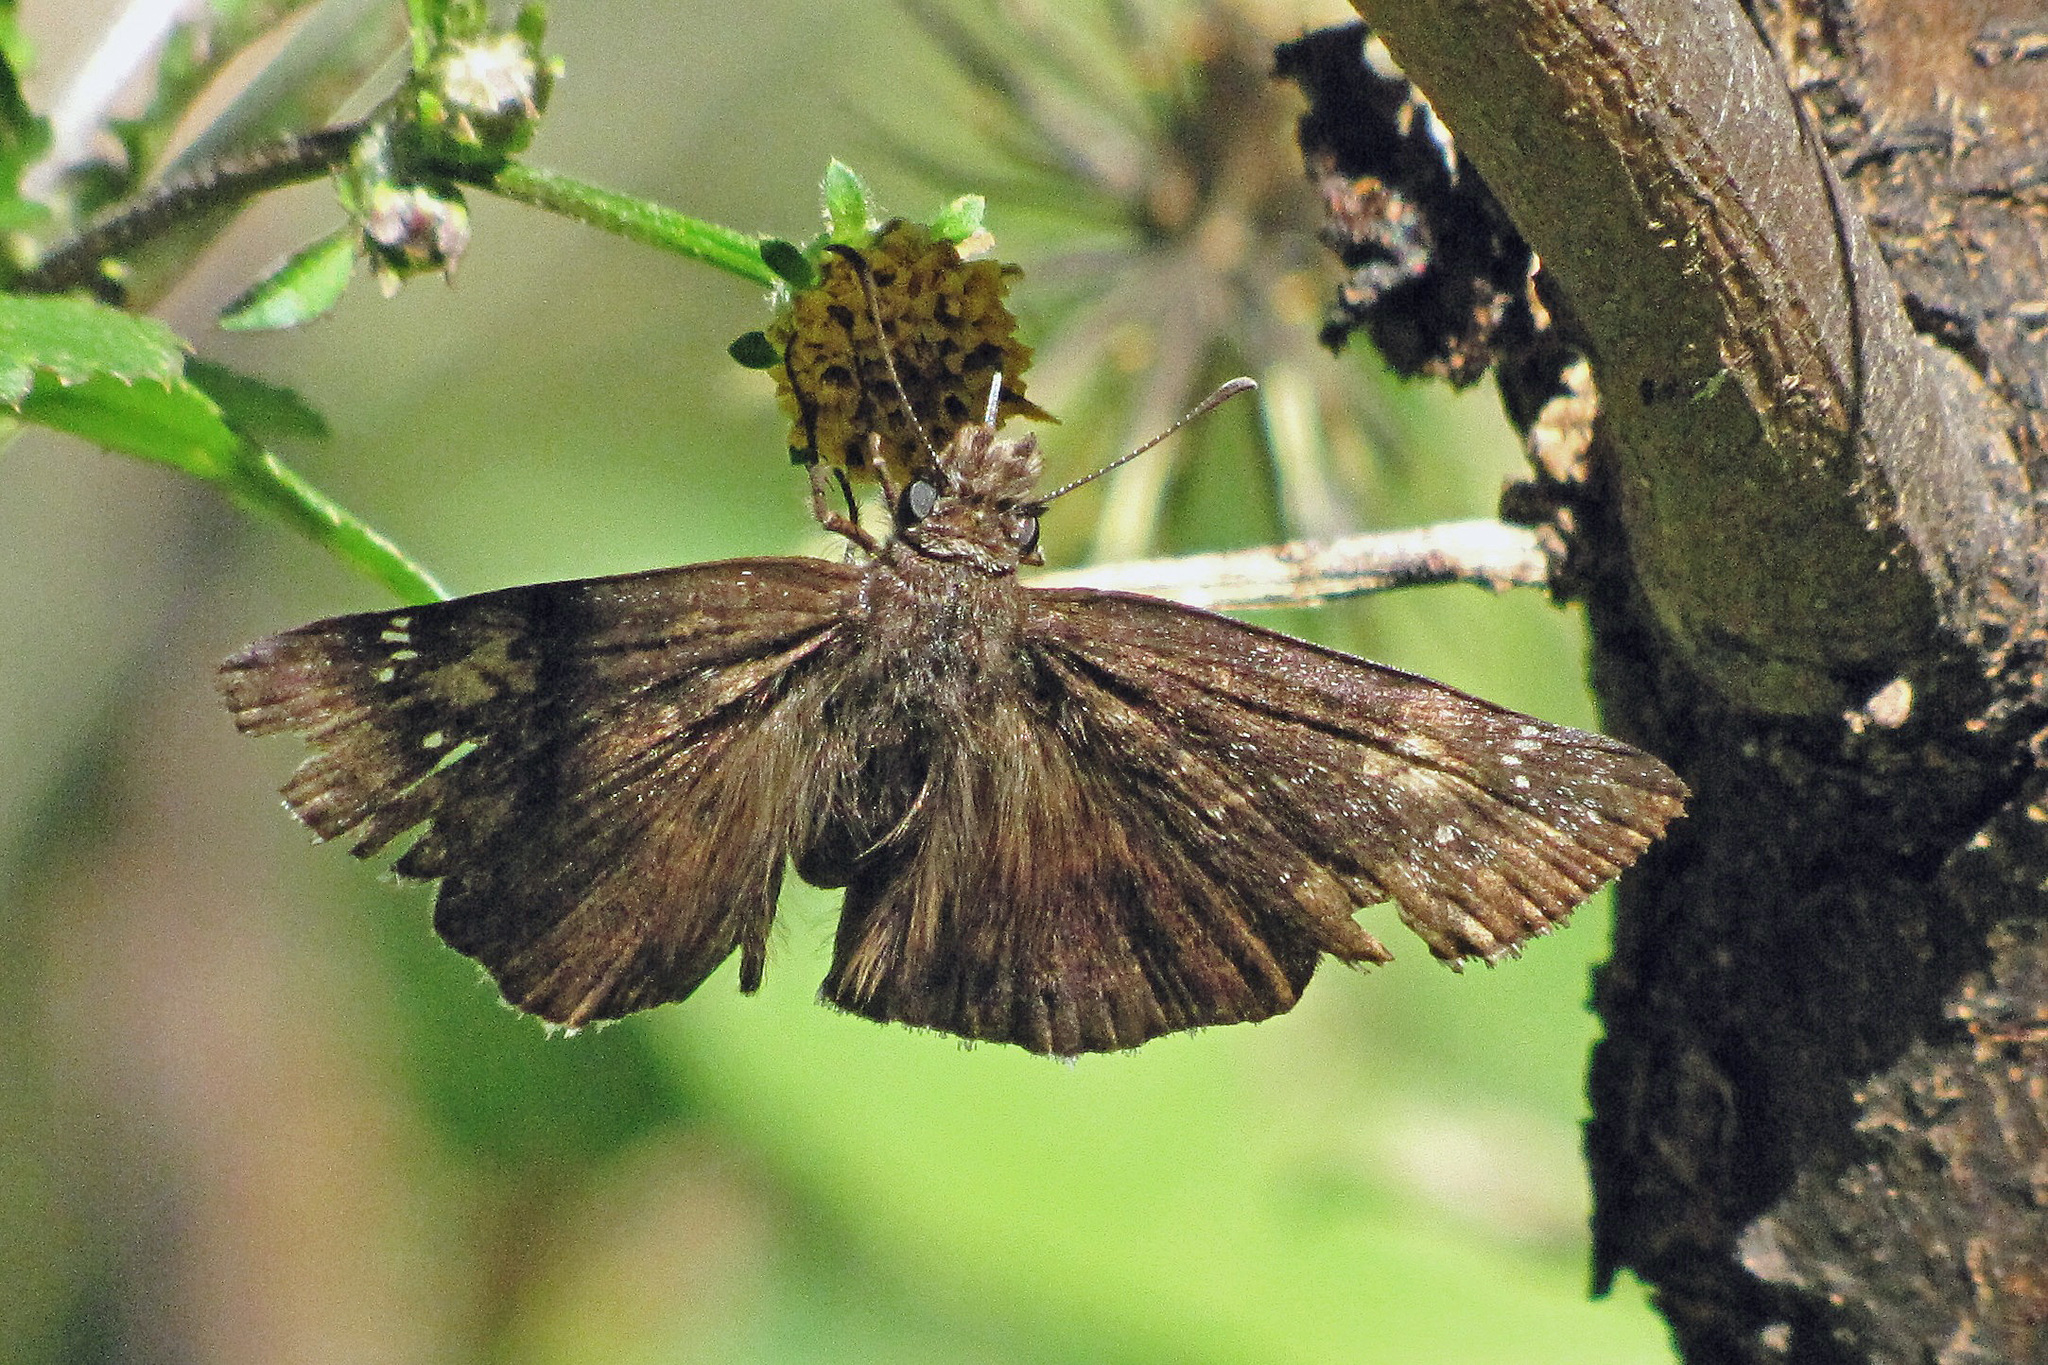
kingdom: Animalia
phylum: Arthropoda
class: Insecta
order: Lepidoptera
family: Hesperiidae
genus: Erynnis
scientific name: Erynnis funeralis
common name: Funereal duskywing
